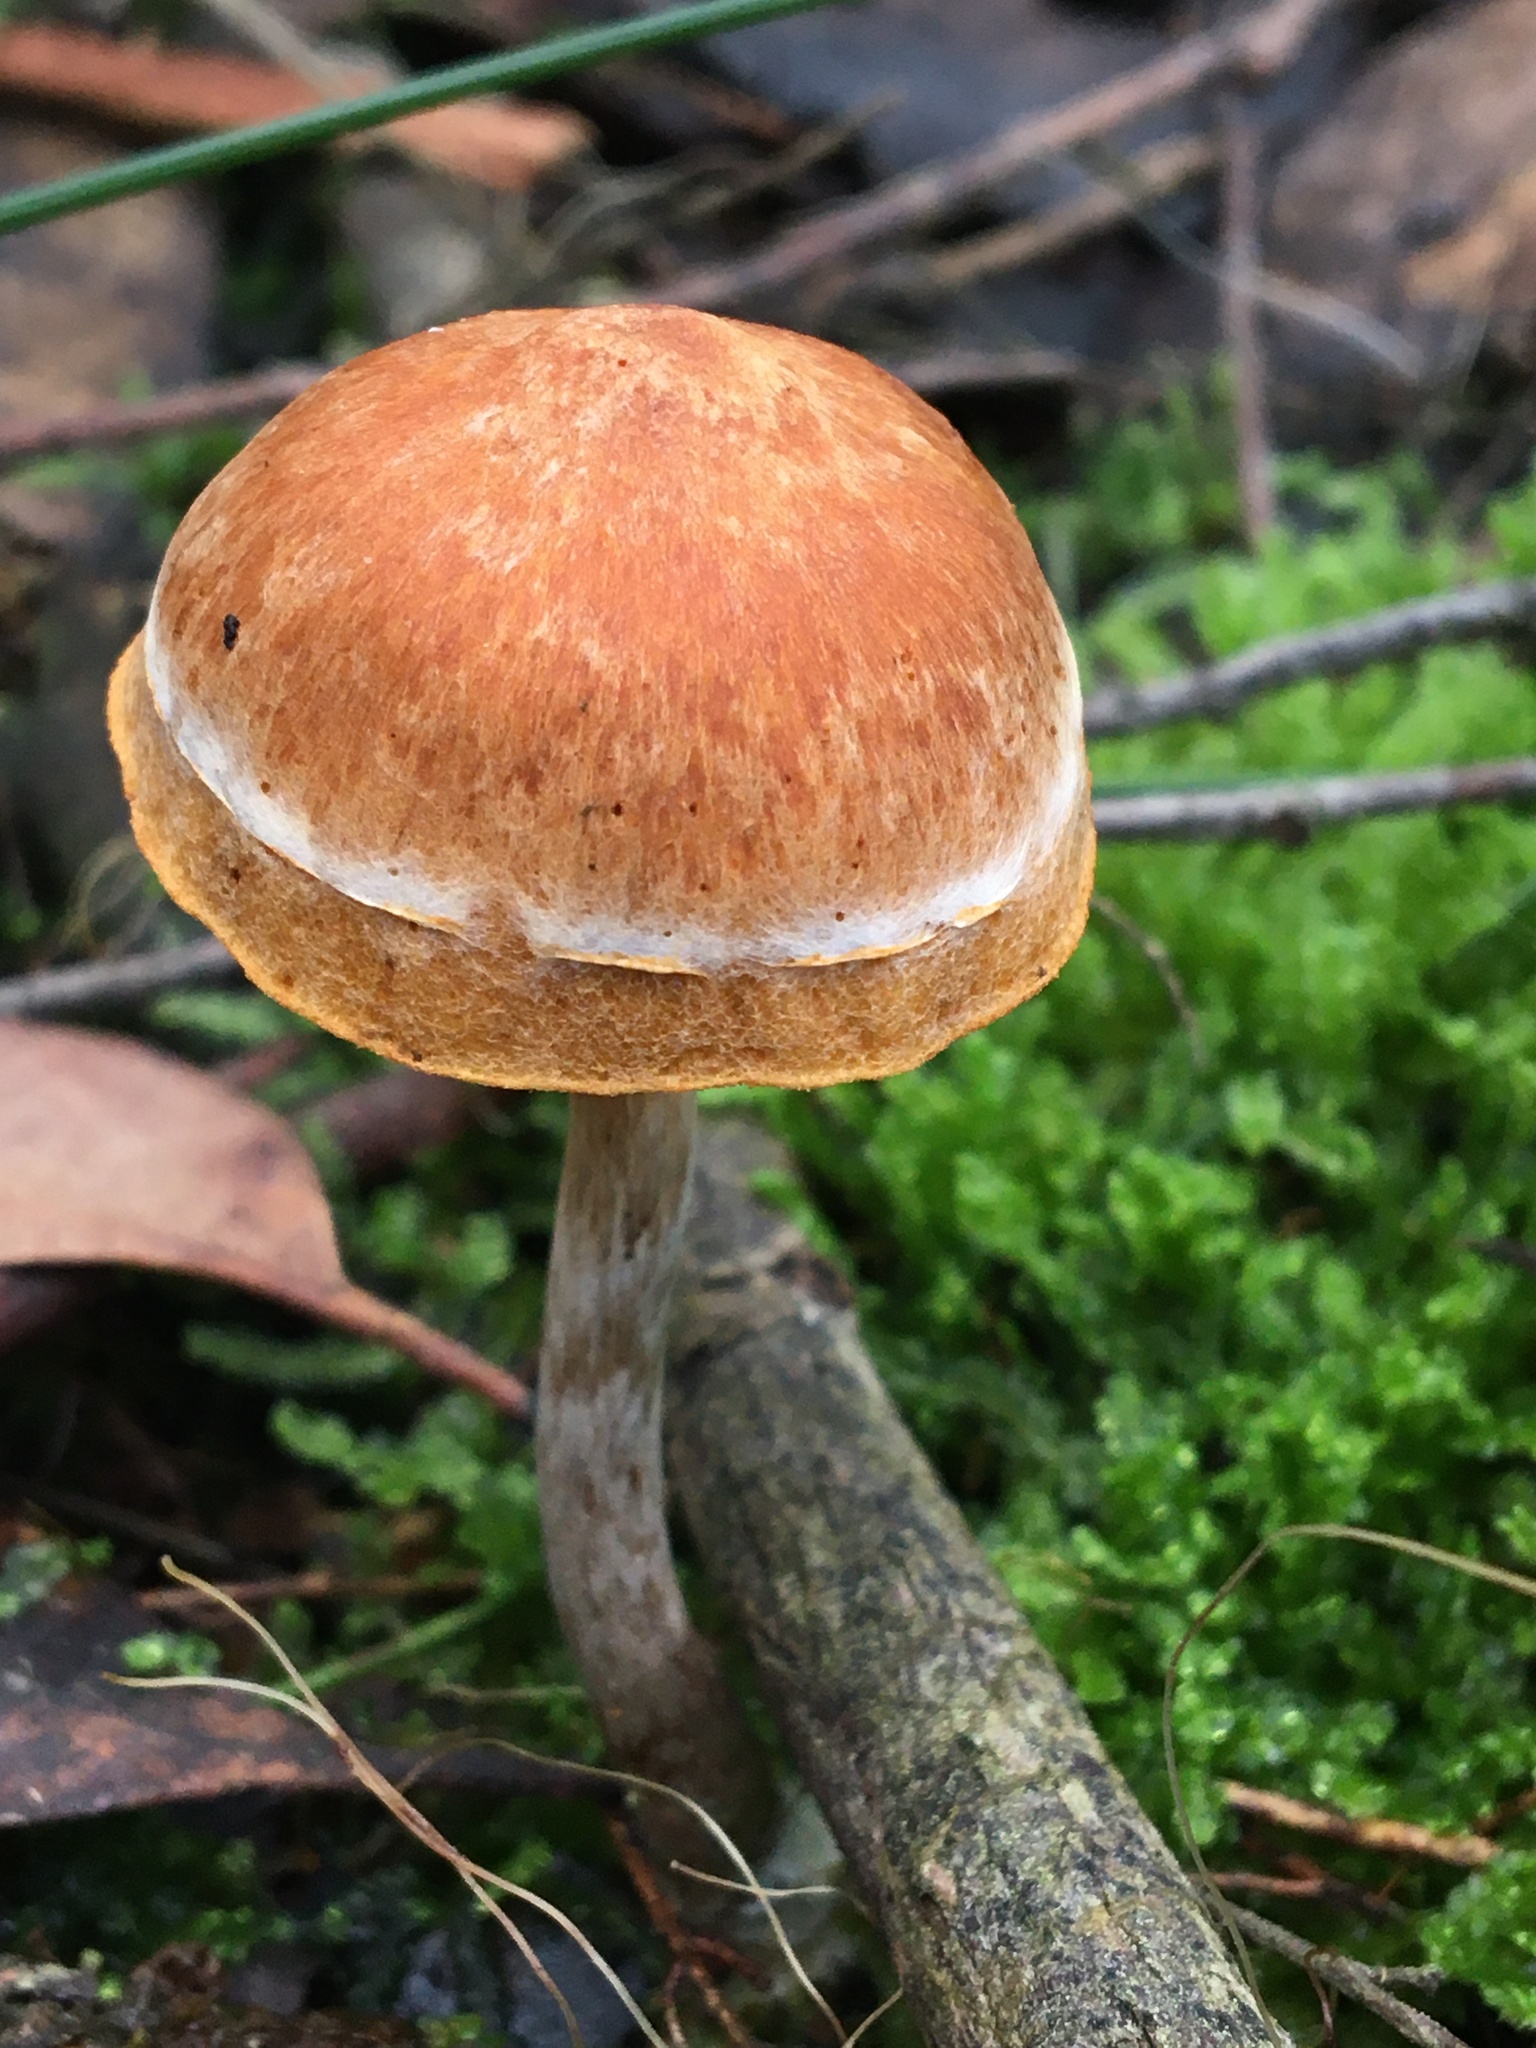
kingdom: Fungi
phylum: Basidiomycota
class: Agaricomycetes
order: Agaricales
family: Hymenogastraceae
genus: Gymnopilus
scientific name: Gymnopilus allantopus
